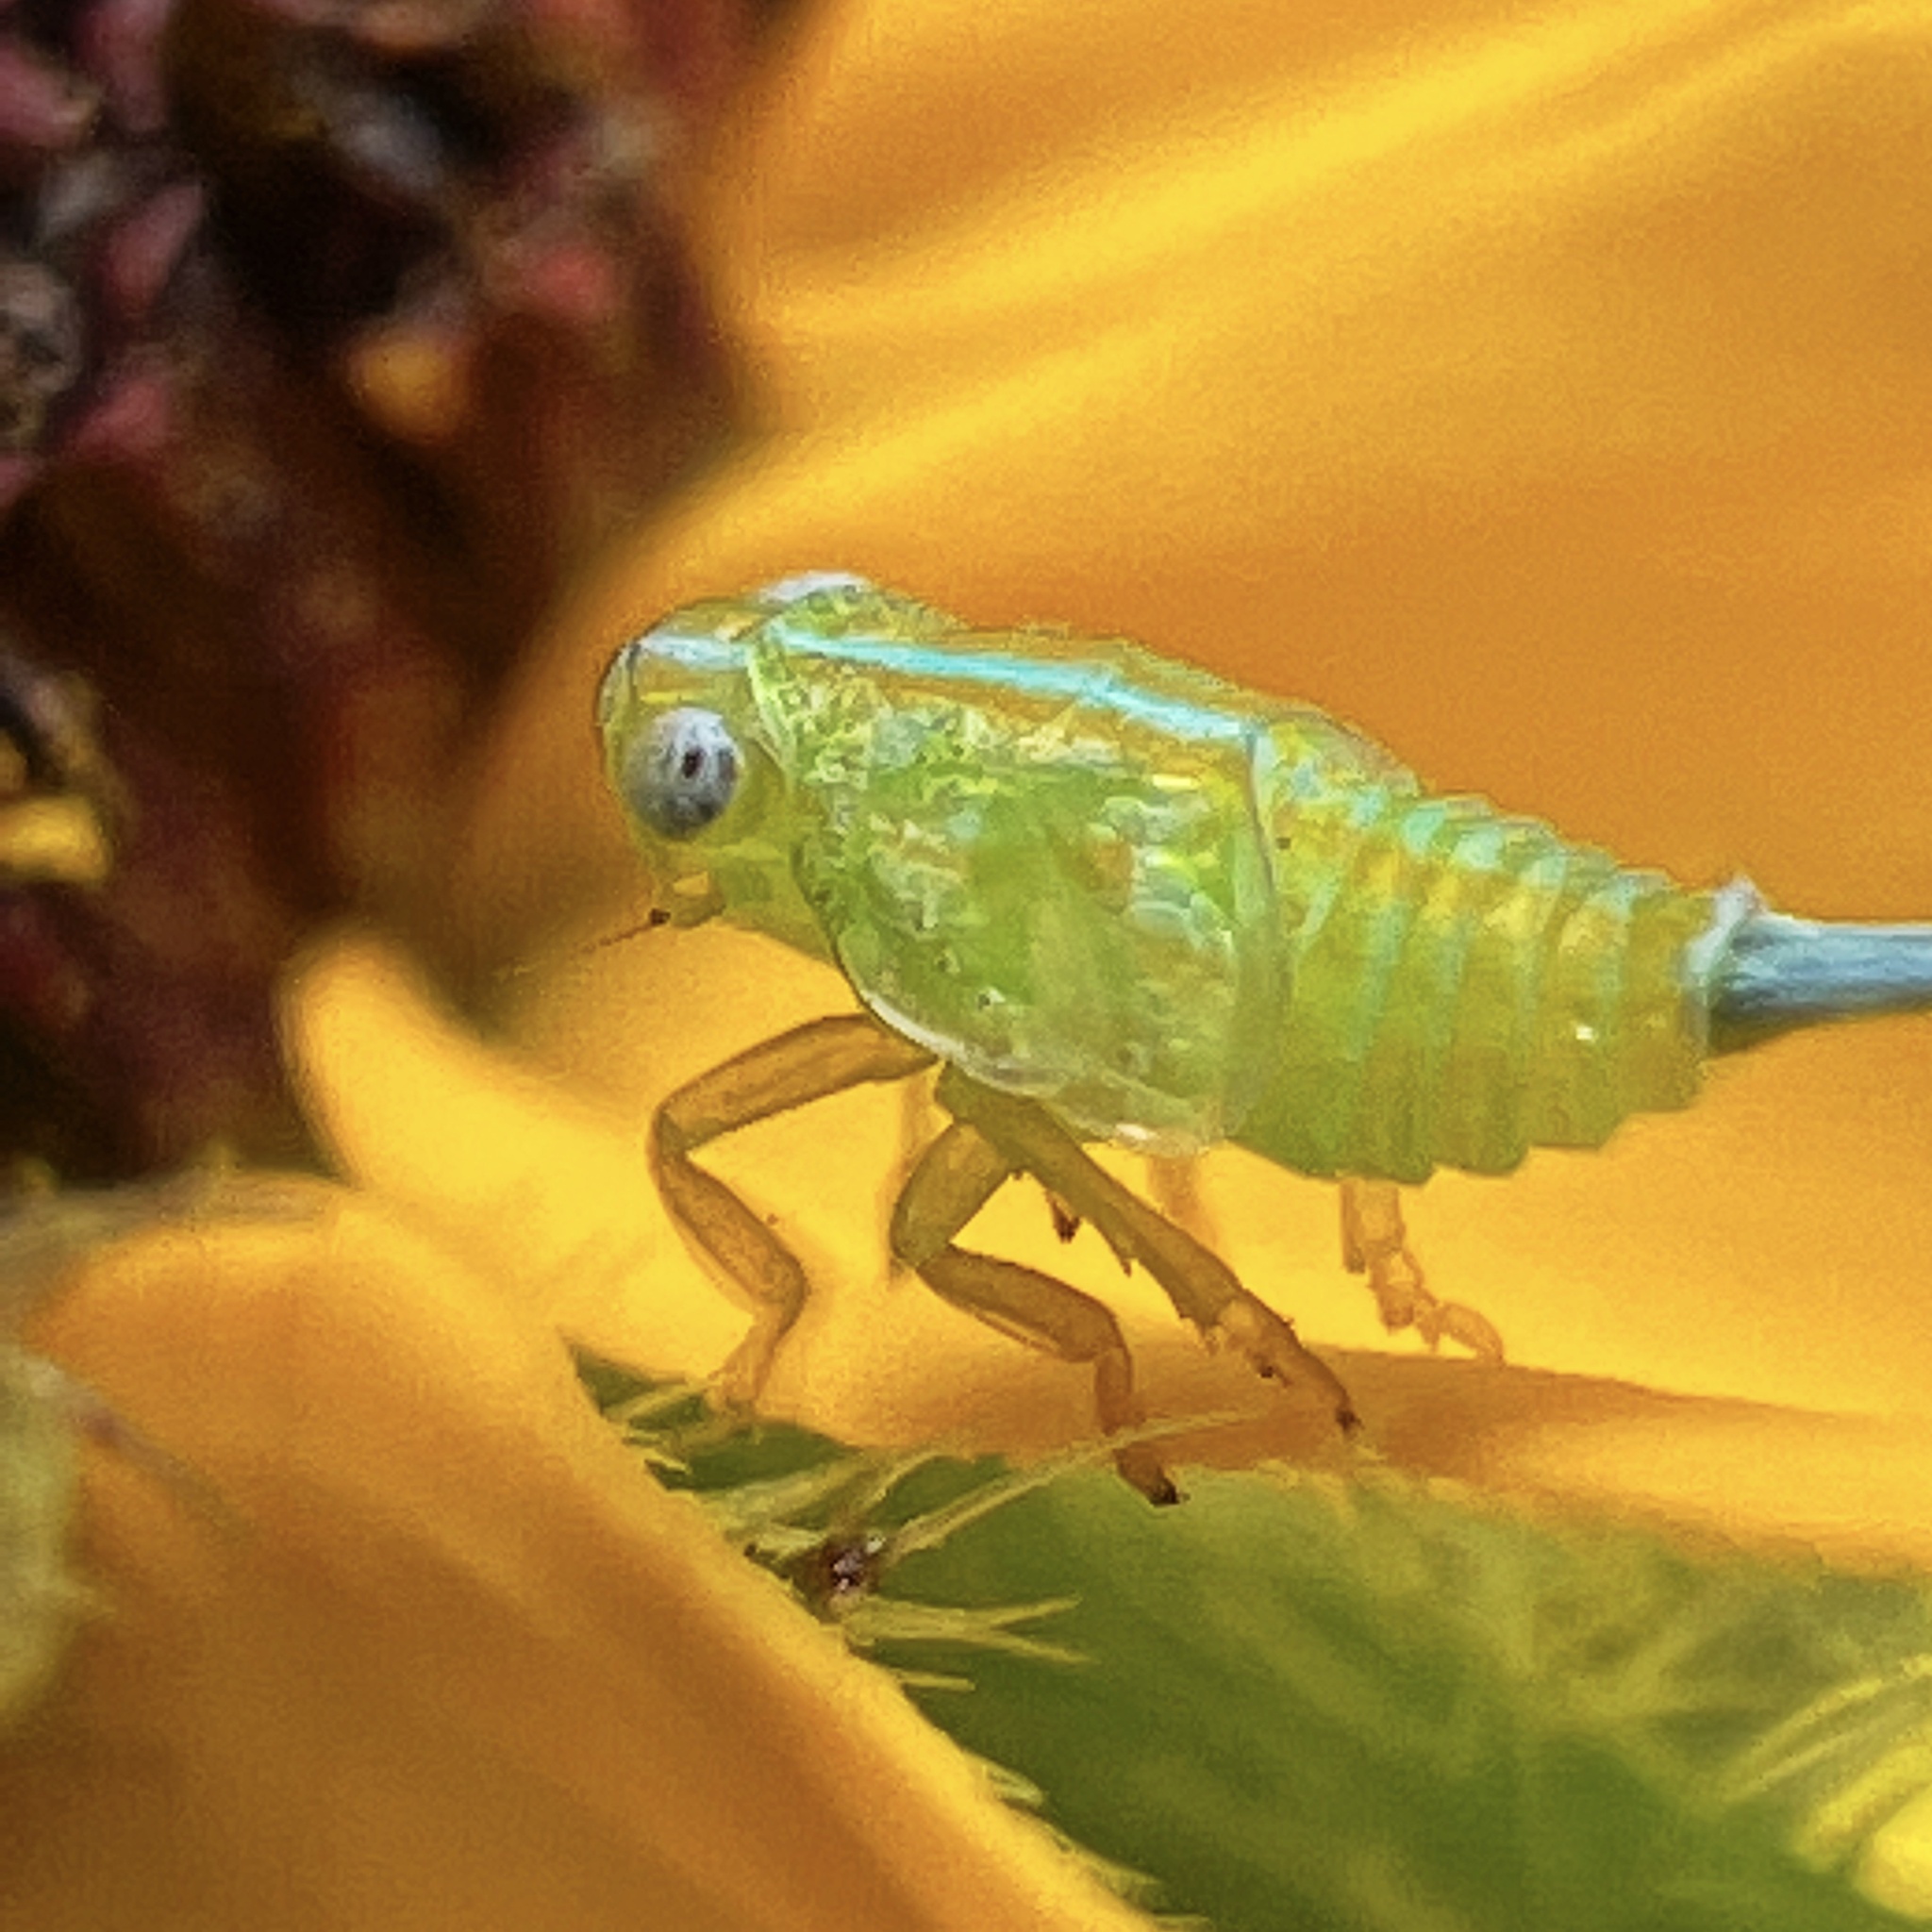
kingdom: Animalia
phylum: Arthropoda
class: Insecta
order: Hemiptera
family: Issidae
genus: Aplos
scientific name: Aplos simplex
